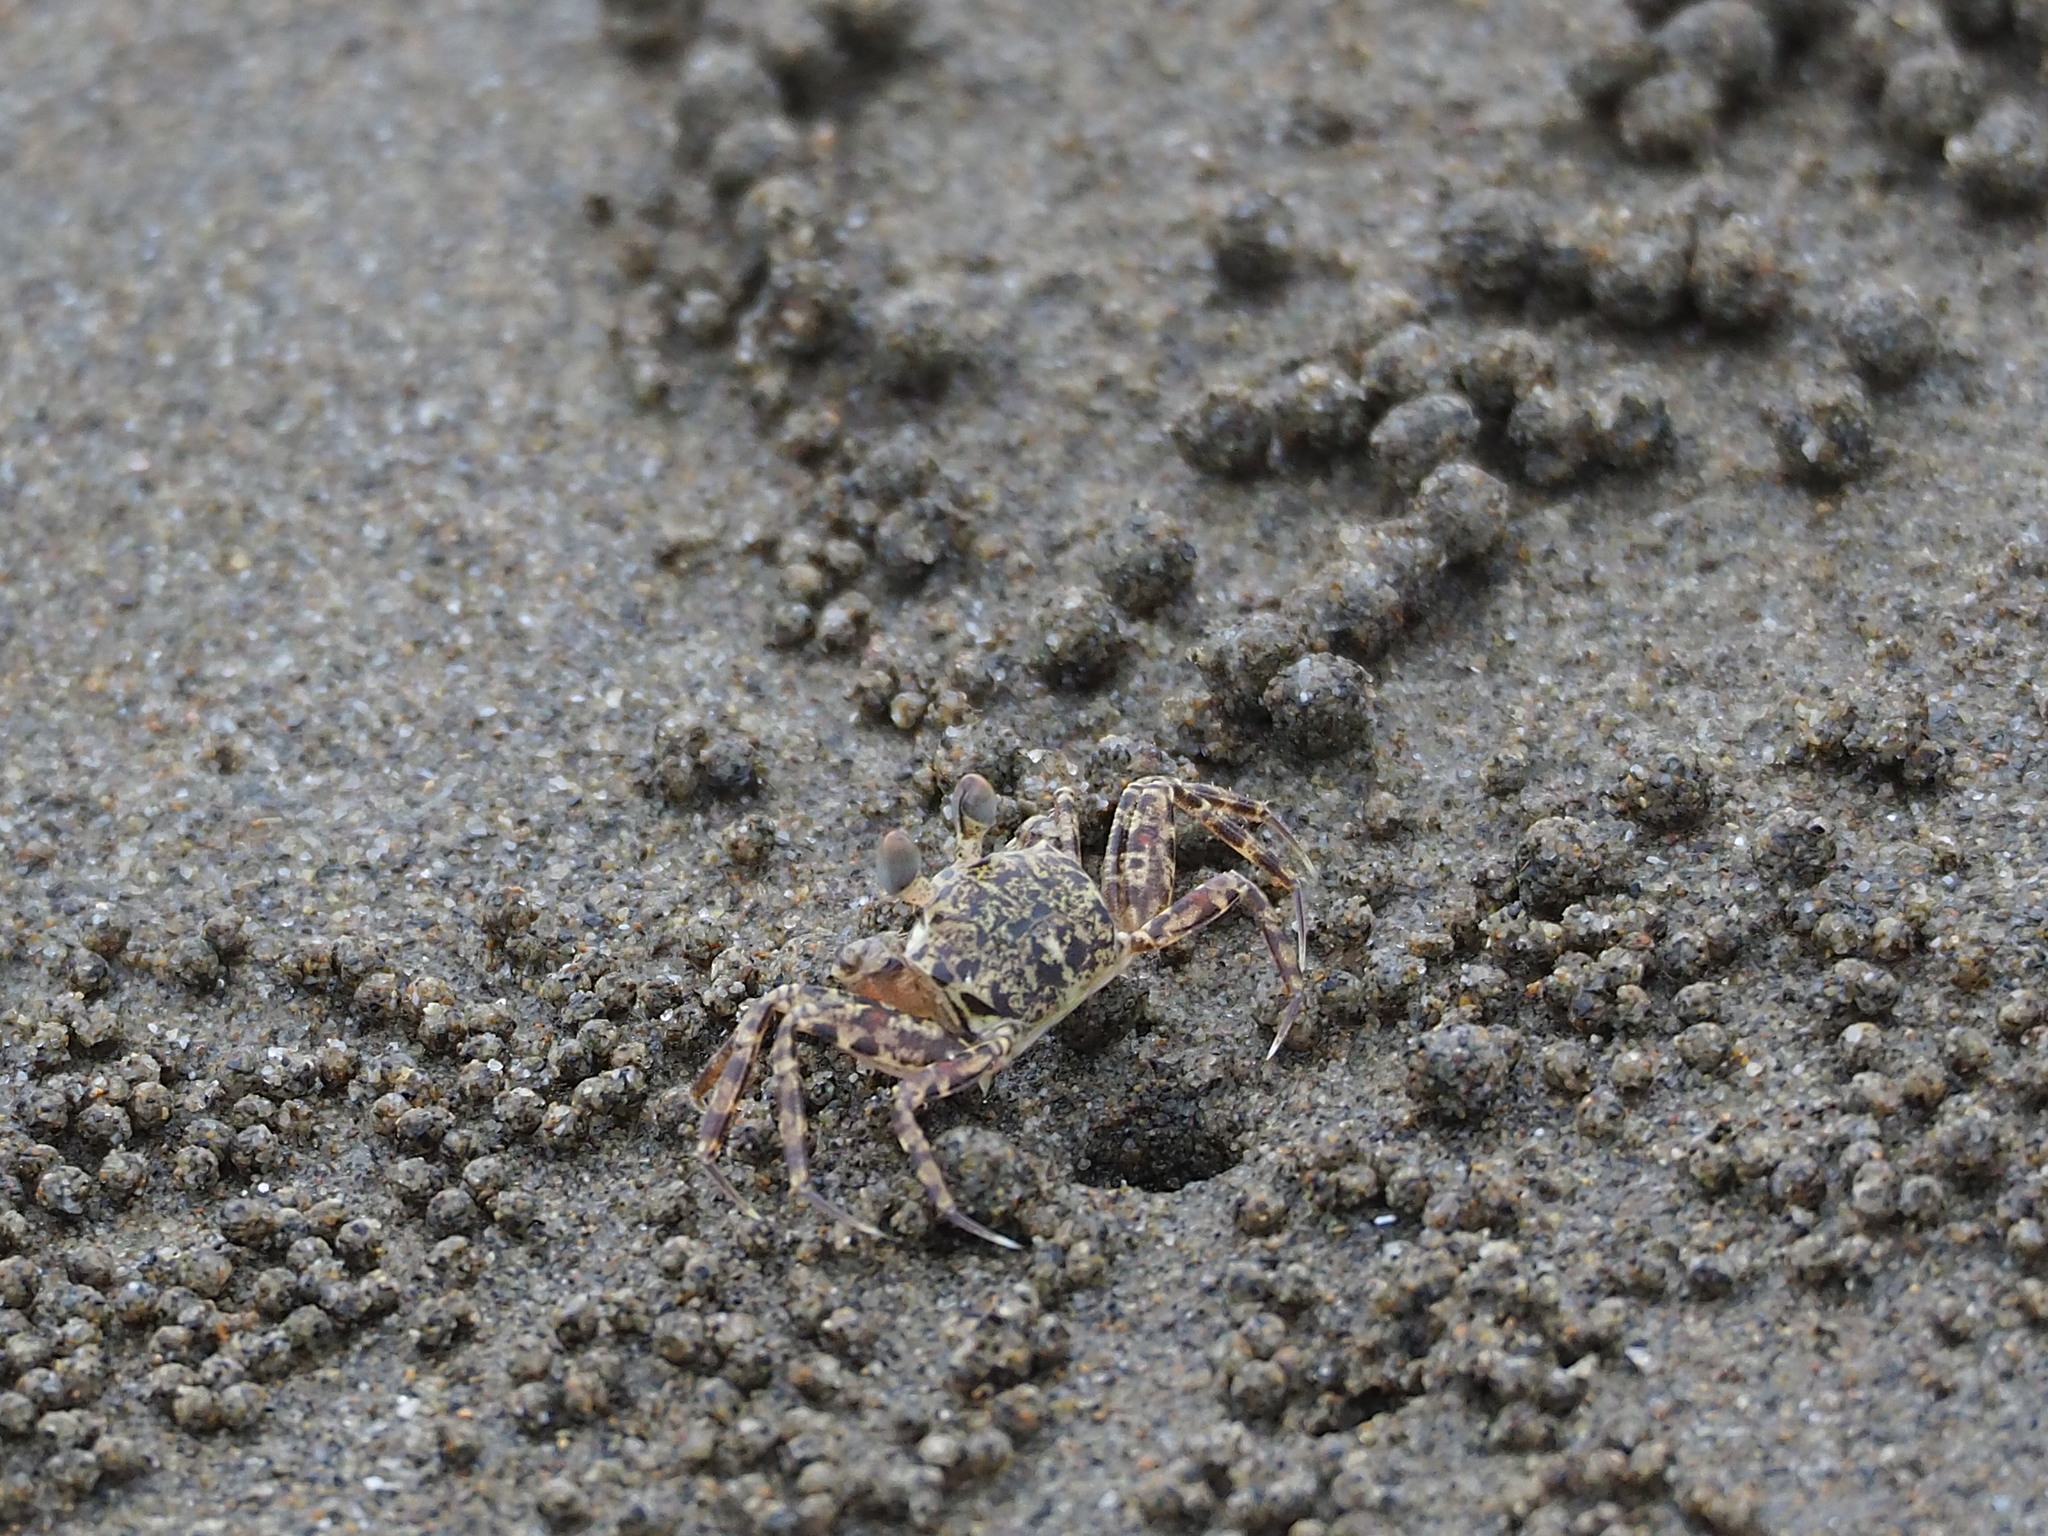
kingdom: Animalia
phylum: Arthropoda
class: Malacostraca
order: Decapoda
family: Ocypodidae
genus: Ocypode
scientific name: Ocypode ceratophthalmus
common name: Indo-pacific ghost crab
